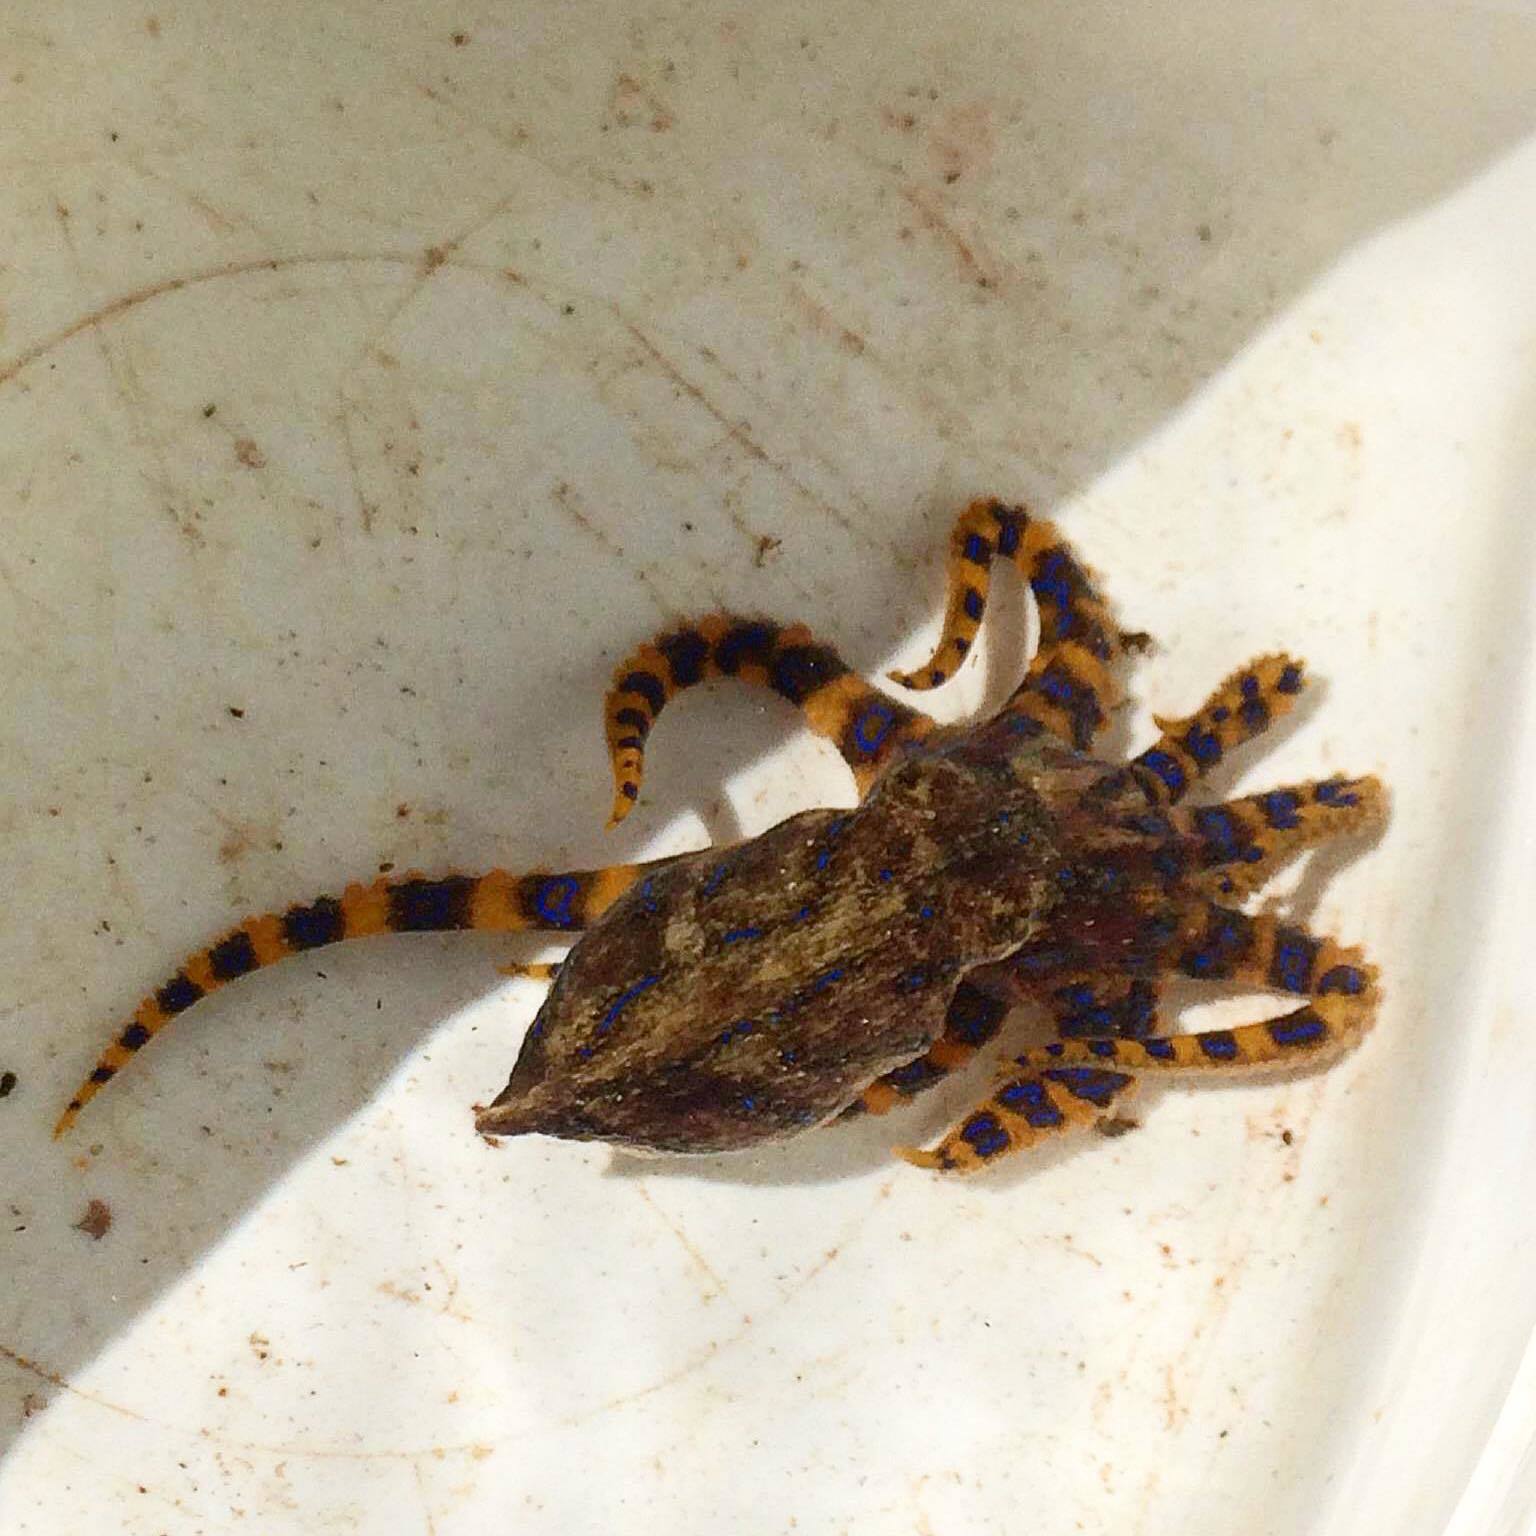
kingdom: Animalia
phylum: Mollusca
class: Cephalopoda
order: Octopoda
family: Octopodidae
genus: Hapalochlaena
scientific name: Hapalochlaena fasciata
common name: Blue-lined octopus
